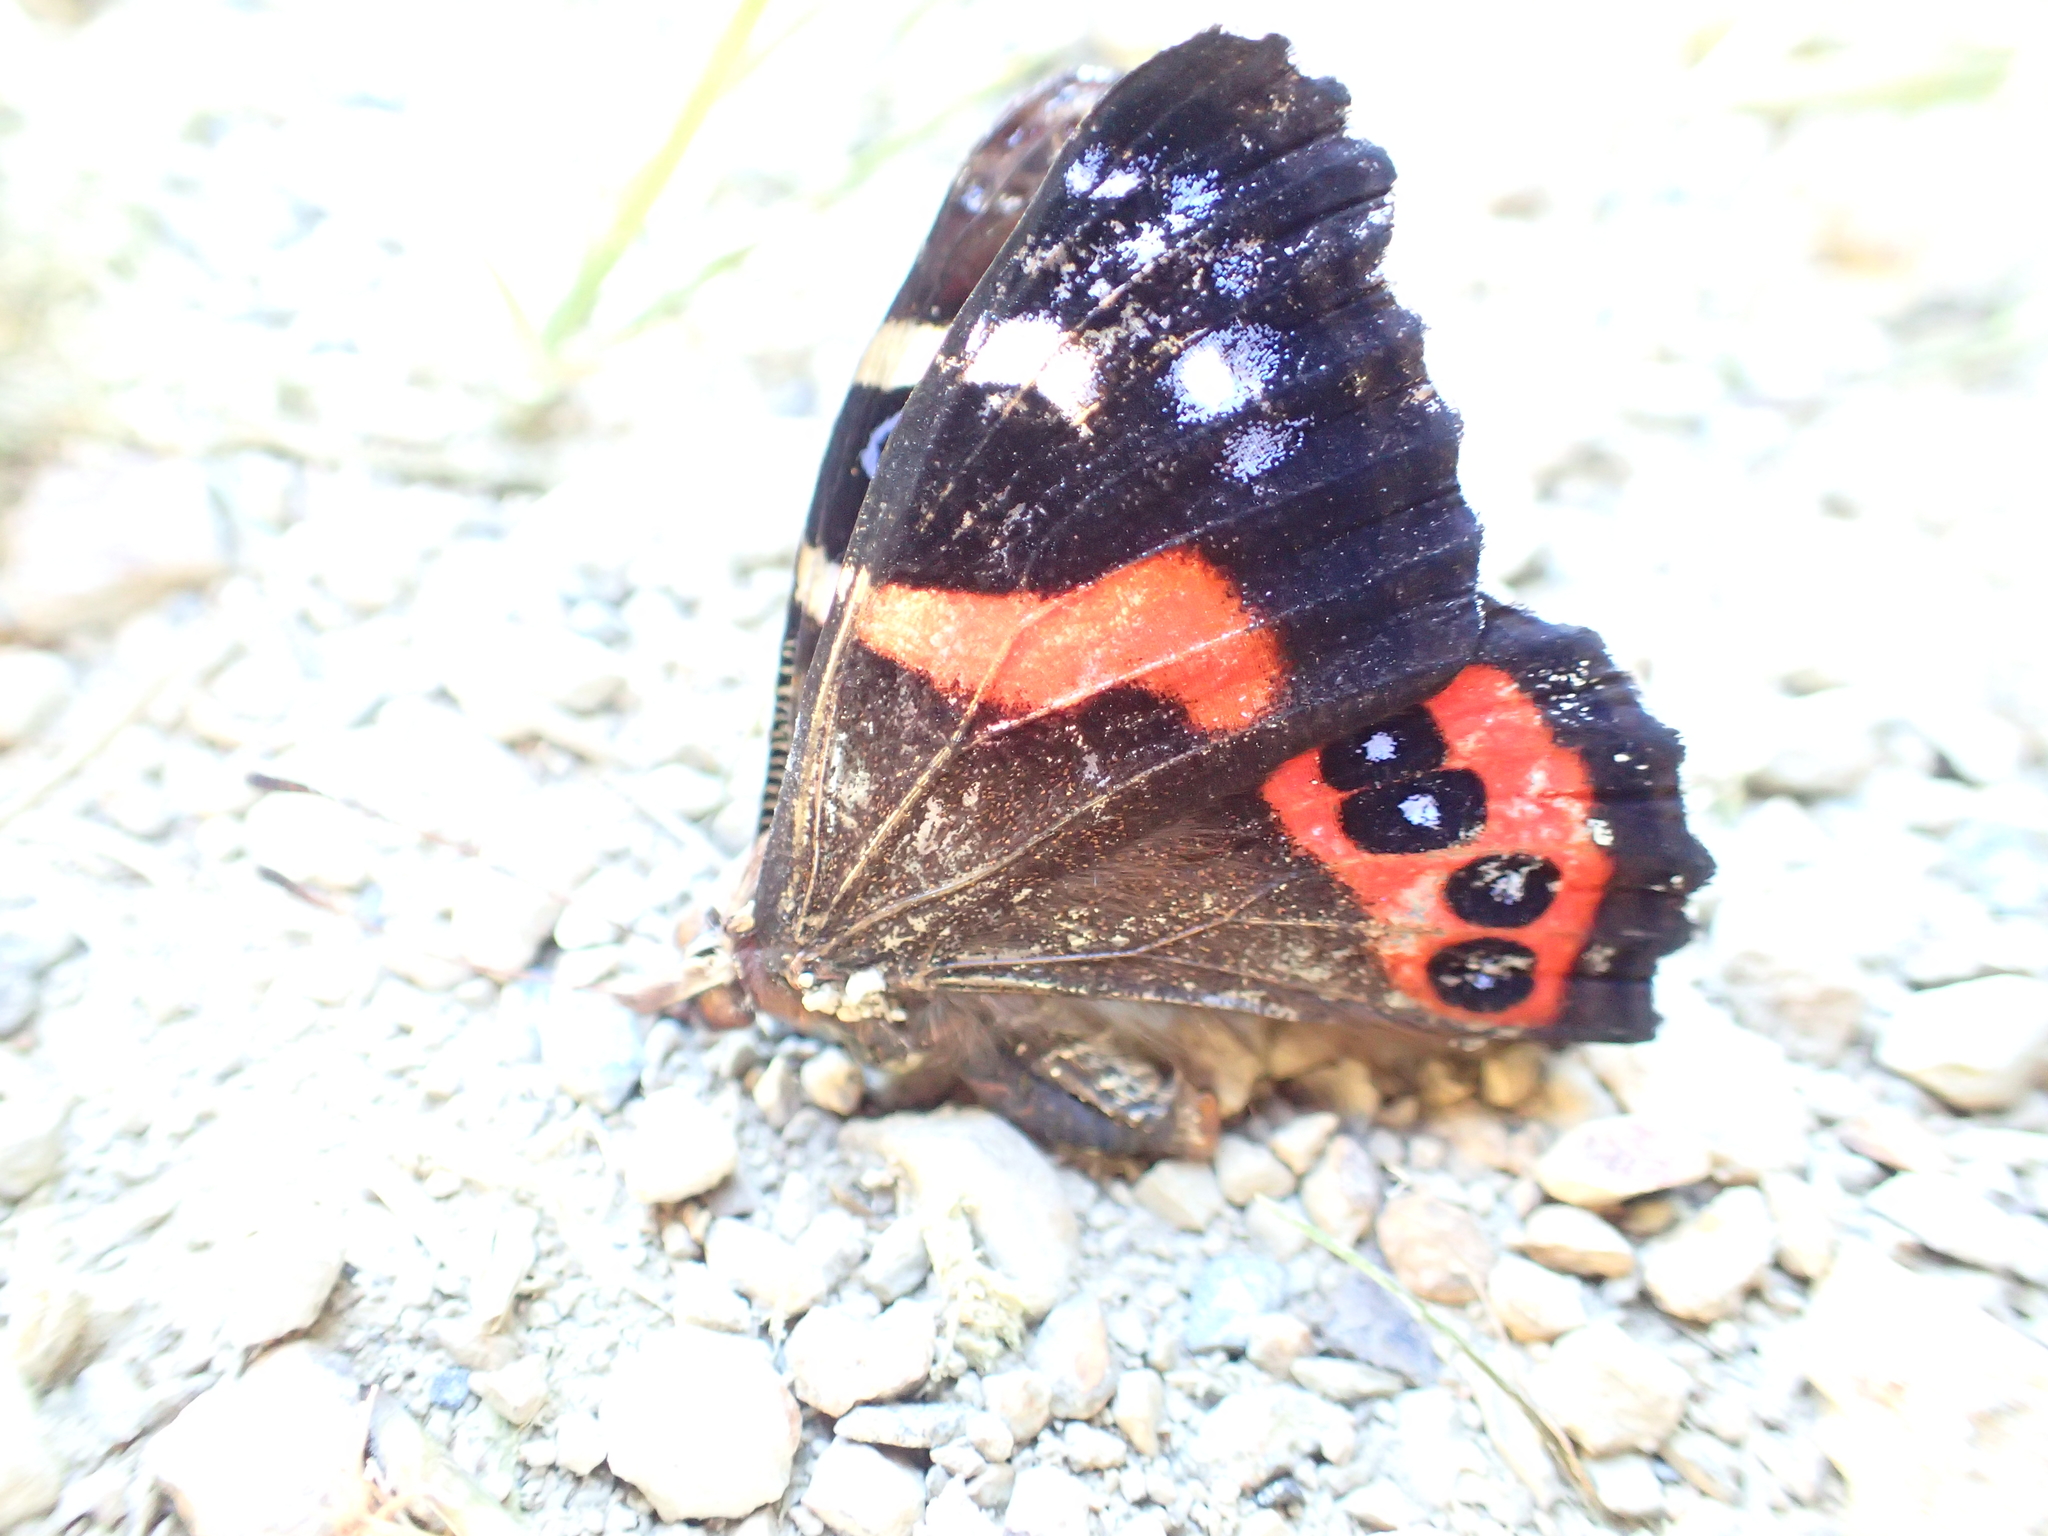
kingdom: Animalia
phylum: Arthropoda
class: Insecta
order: Lepidoptera
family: Nymphalidae
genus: Vanessa
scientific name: Vanessa gonerilla
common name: New zealand red admiral
